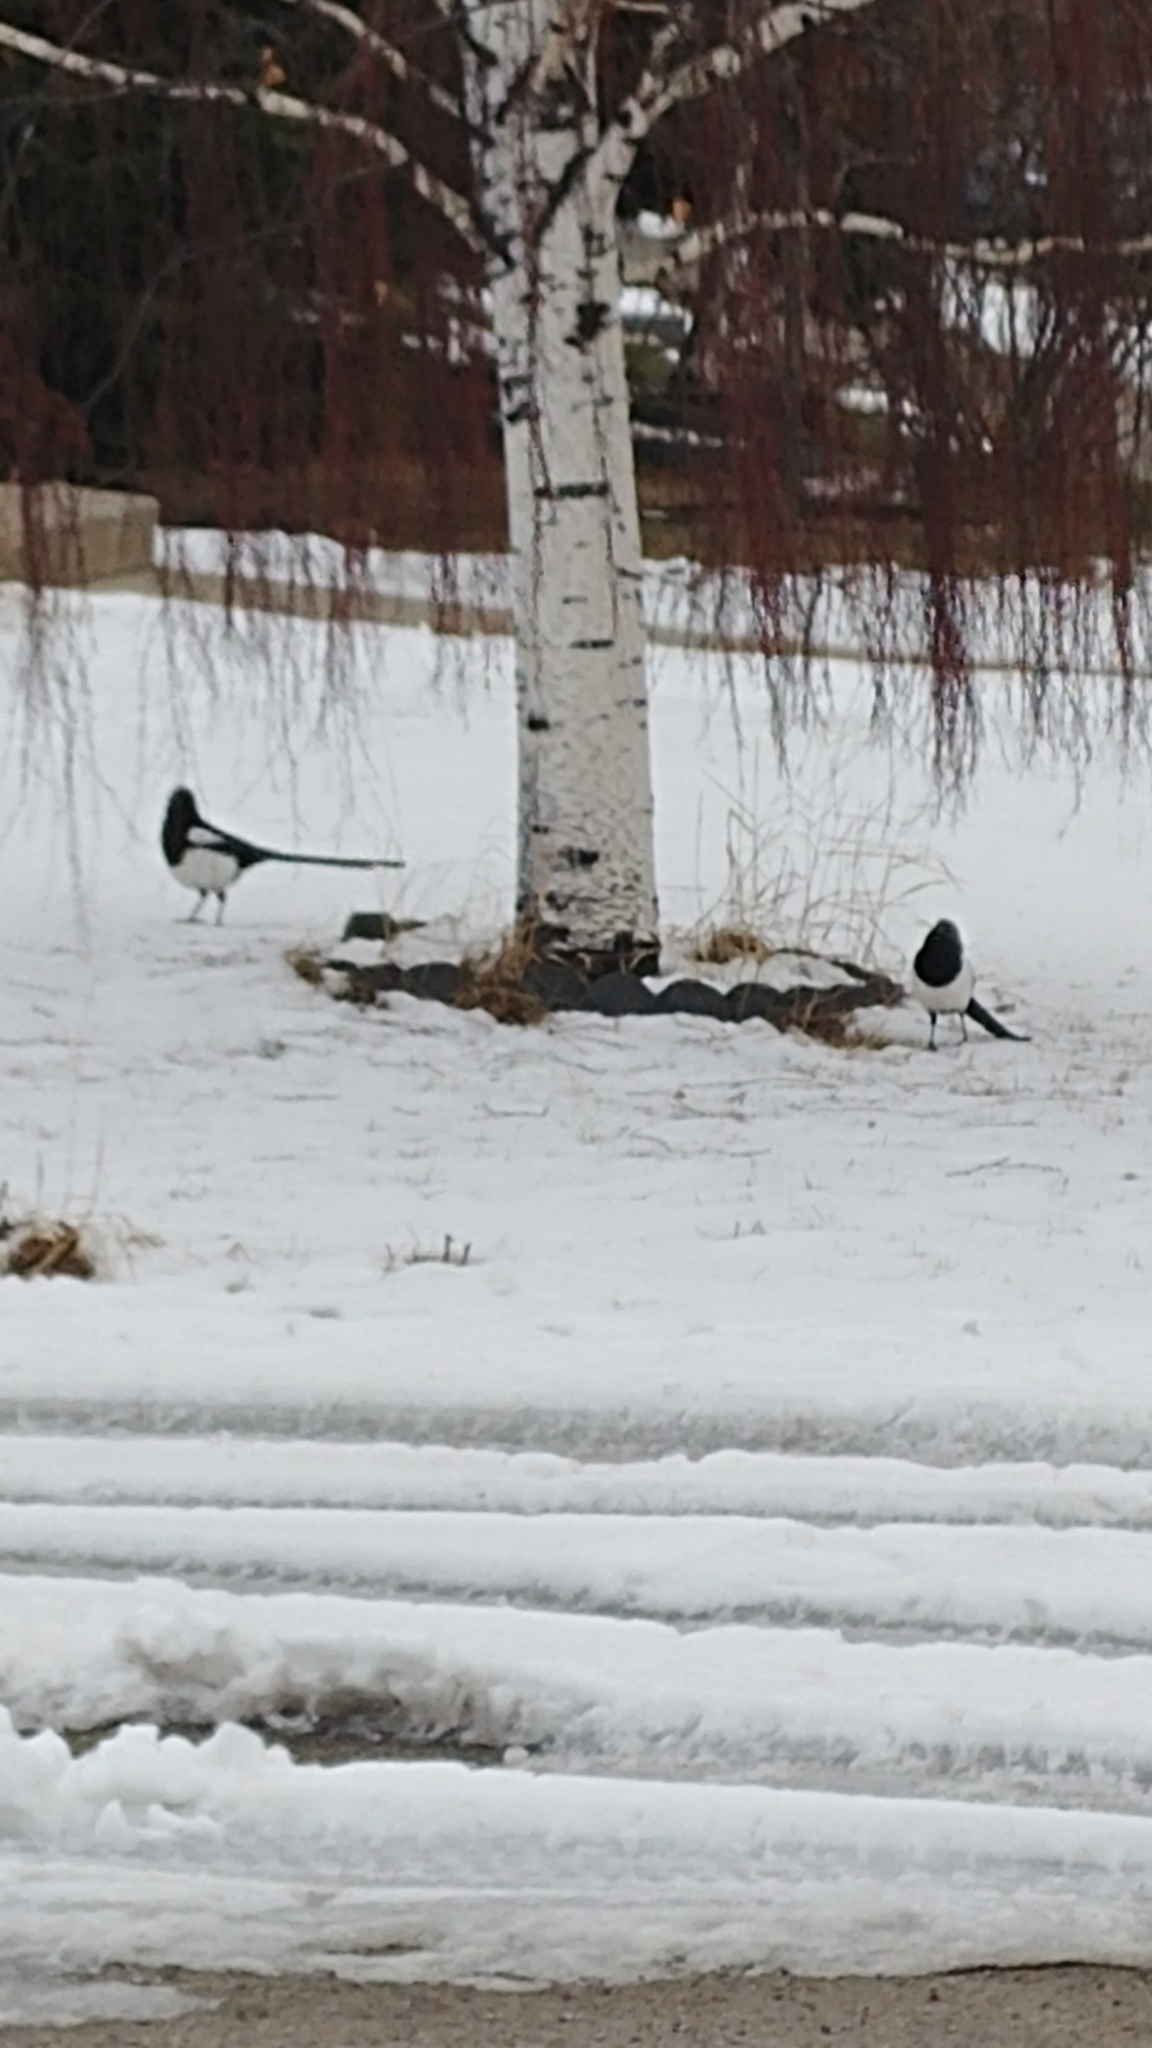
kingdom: Animalia
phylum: Chordata
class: Aves
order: Passeriformes
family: Corvidae
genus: Pica
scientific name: Pica hudsonia
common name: Black-billed magpie
